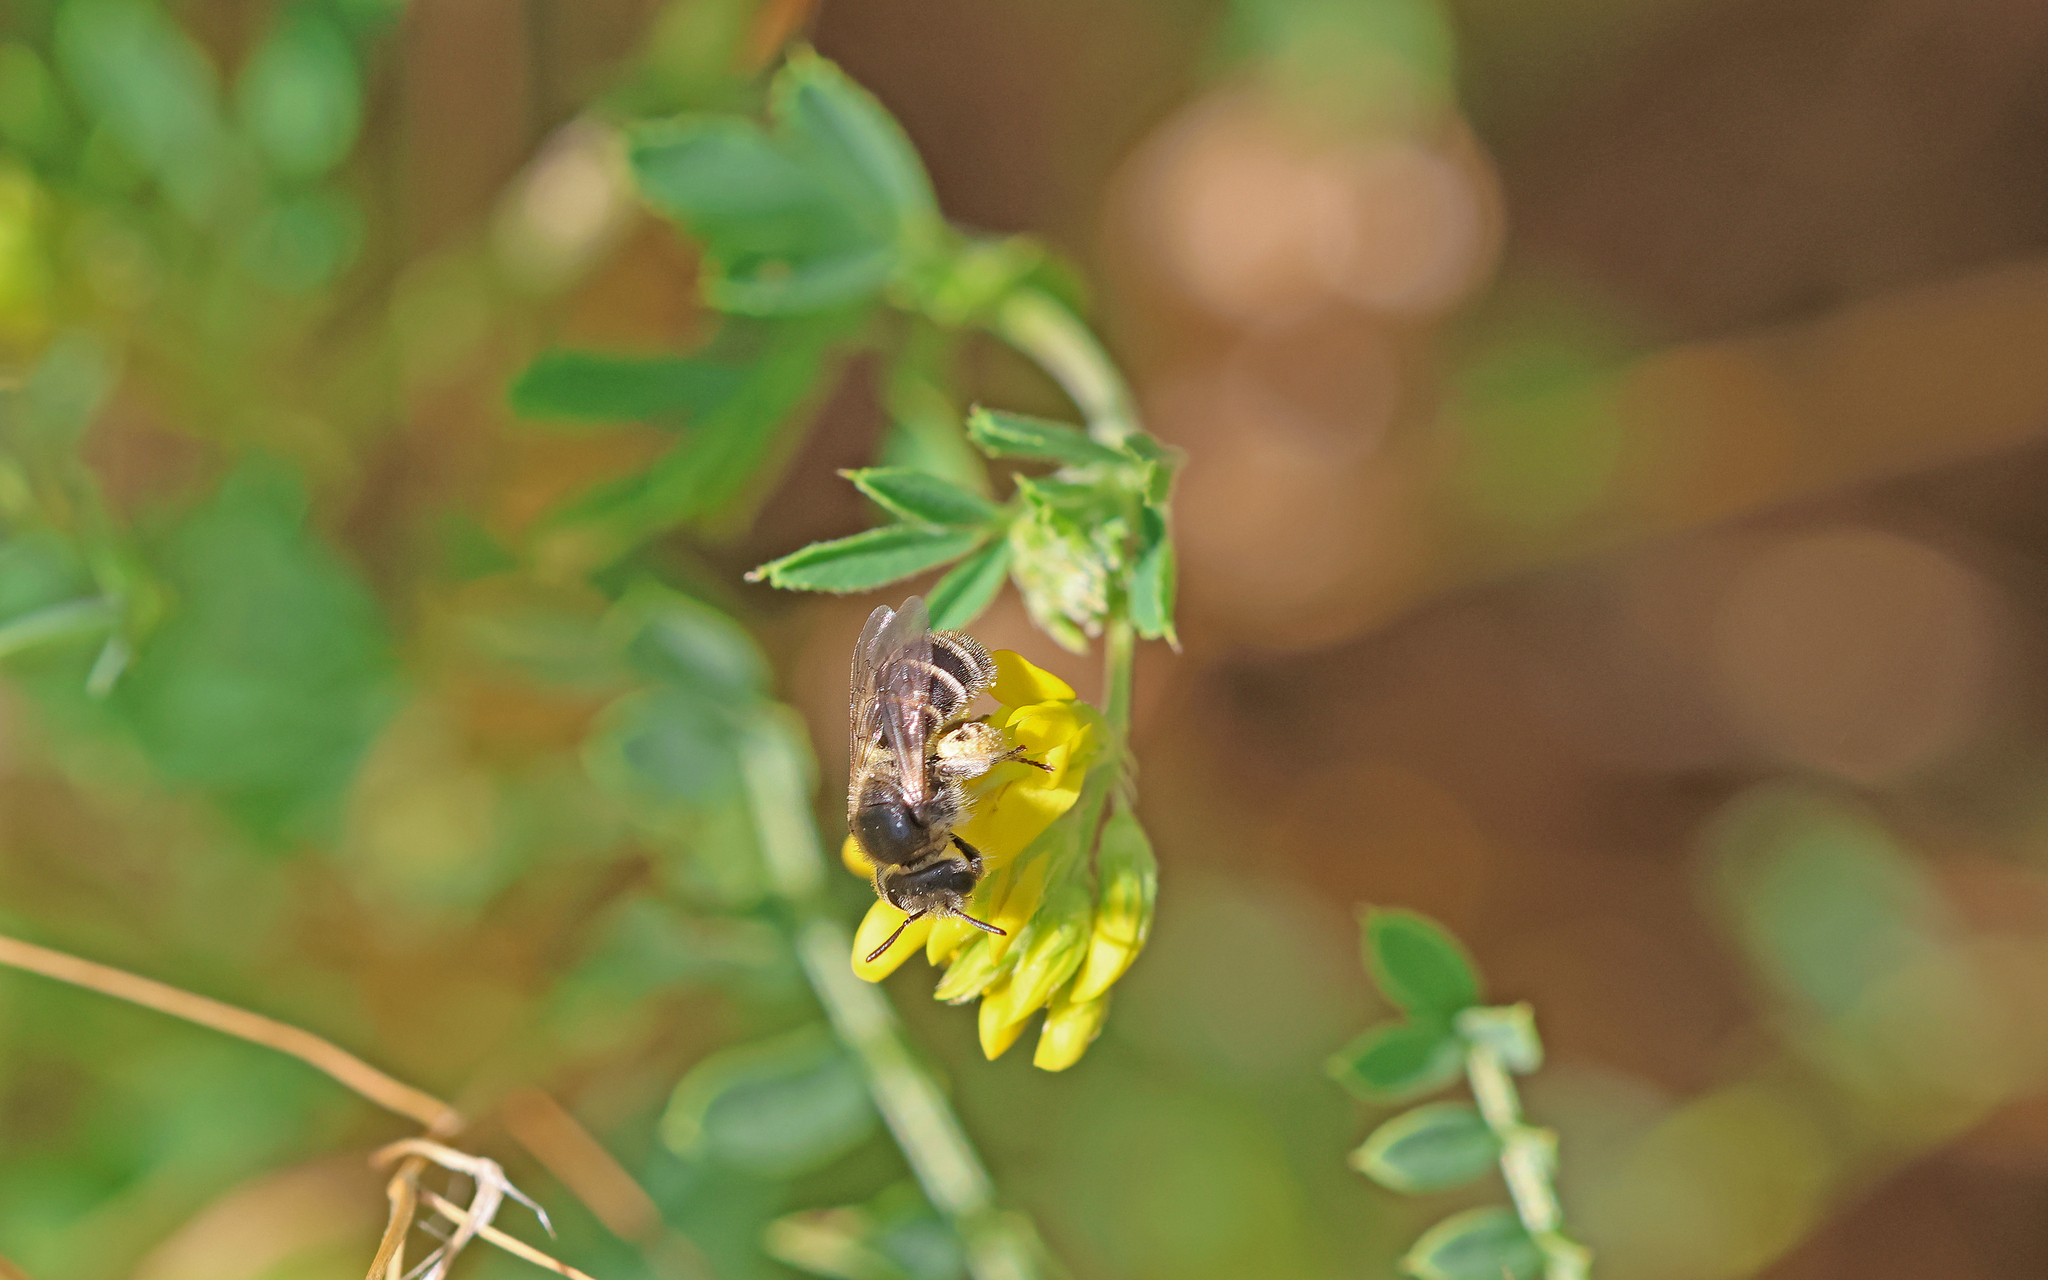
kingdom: Animalia
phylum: Arthropoda
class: Insecta
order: Hymenoptera
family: Halictidae
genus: Rophites
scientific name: Rophites canus
